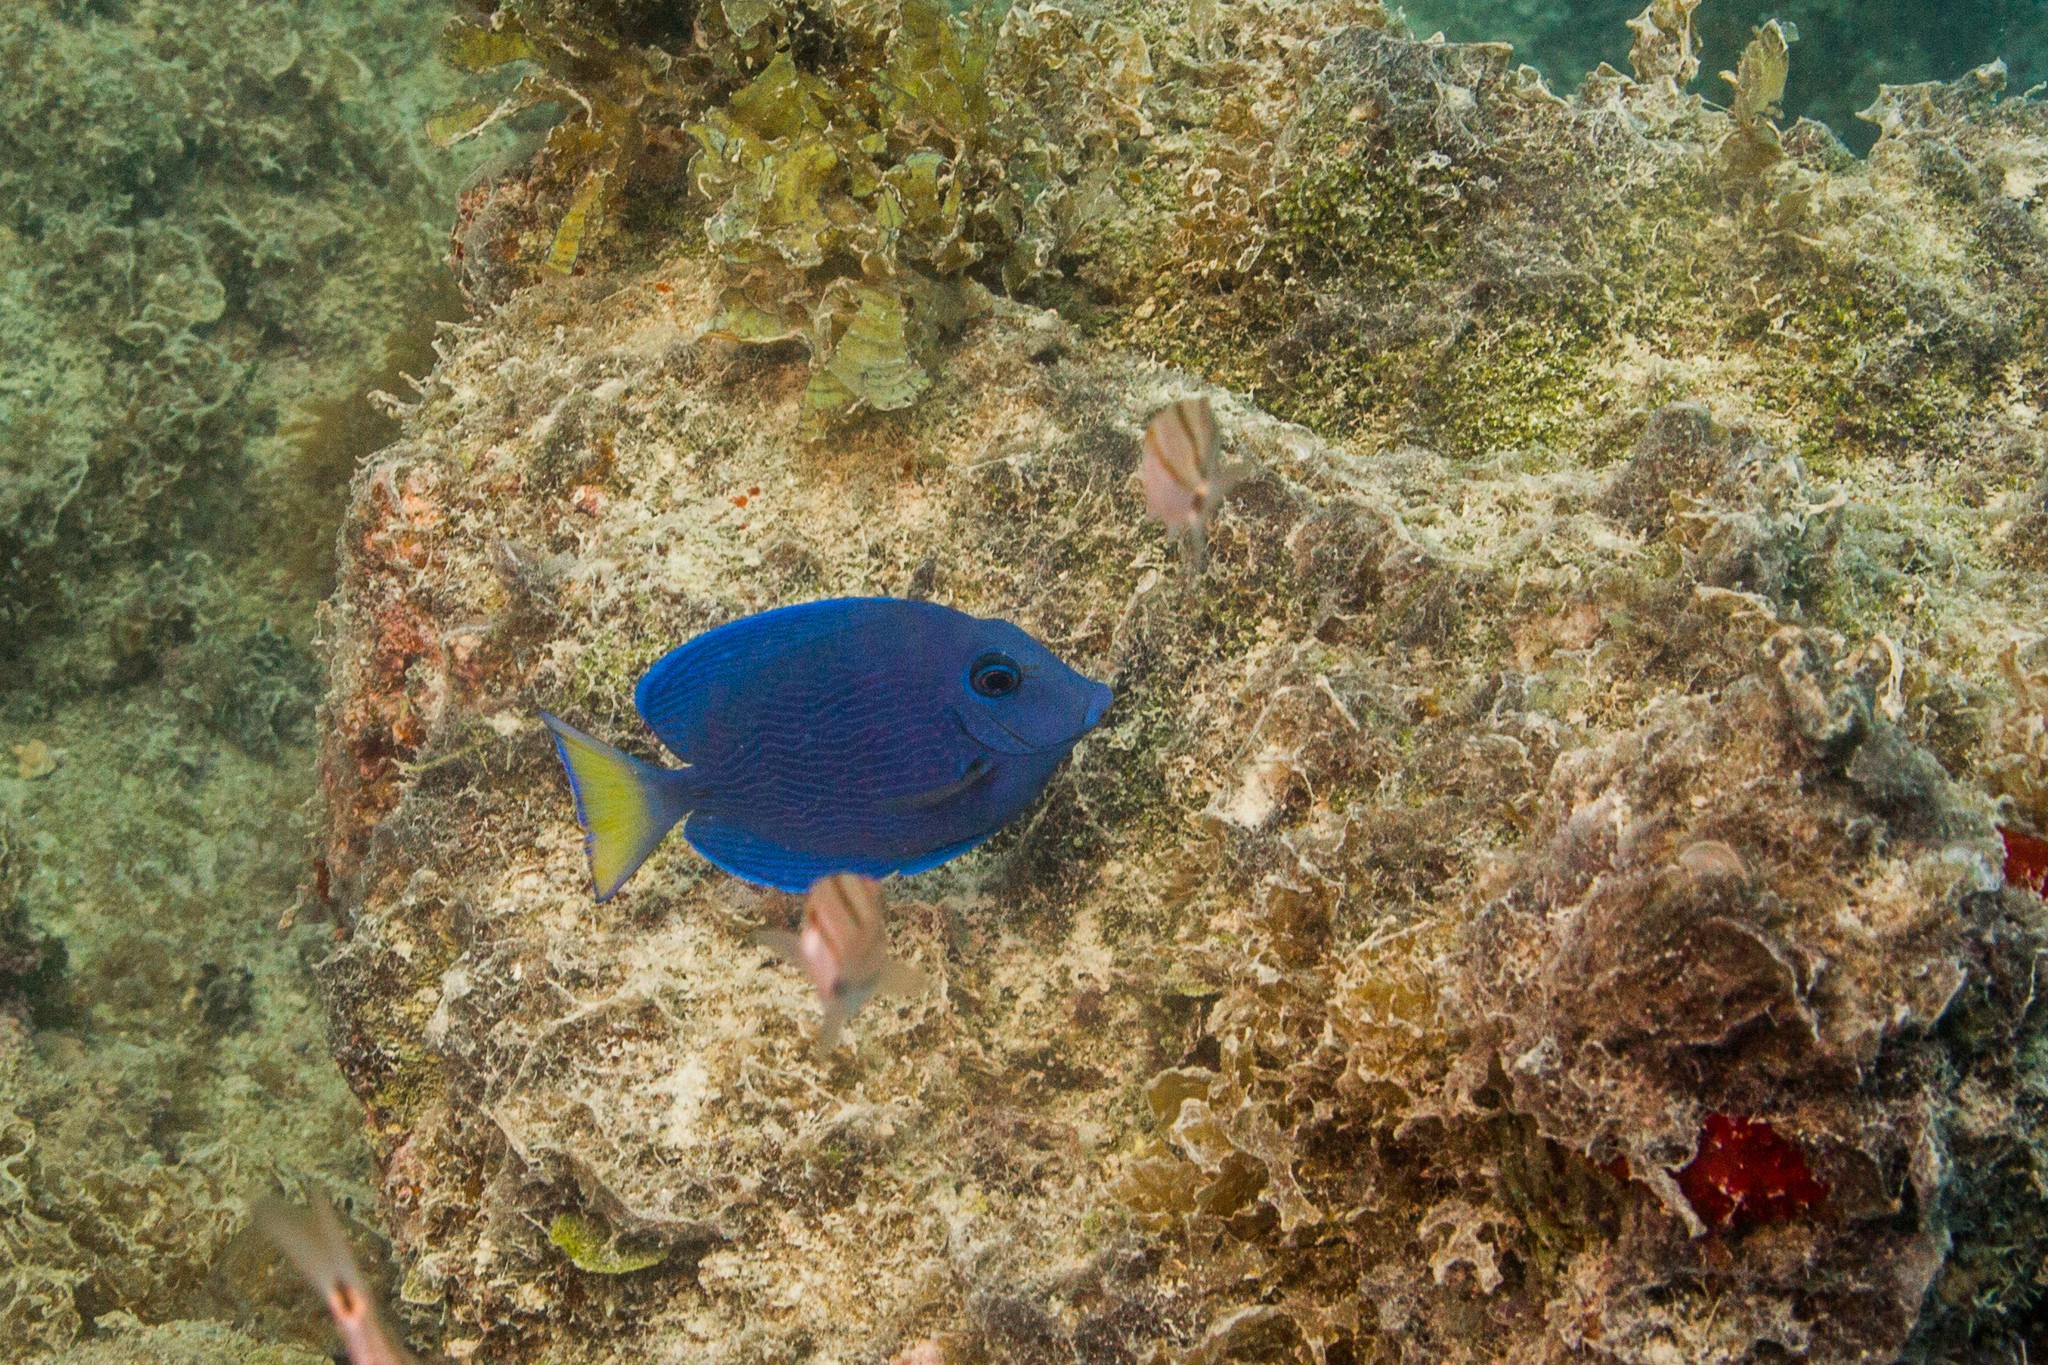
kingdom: Animalia
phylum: Chordata
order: Perciformes
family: Acanthuridae
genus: Acanthurus
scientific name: Acanthurus coeruleus
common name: Blue tang
